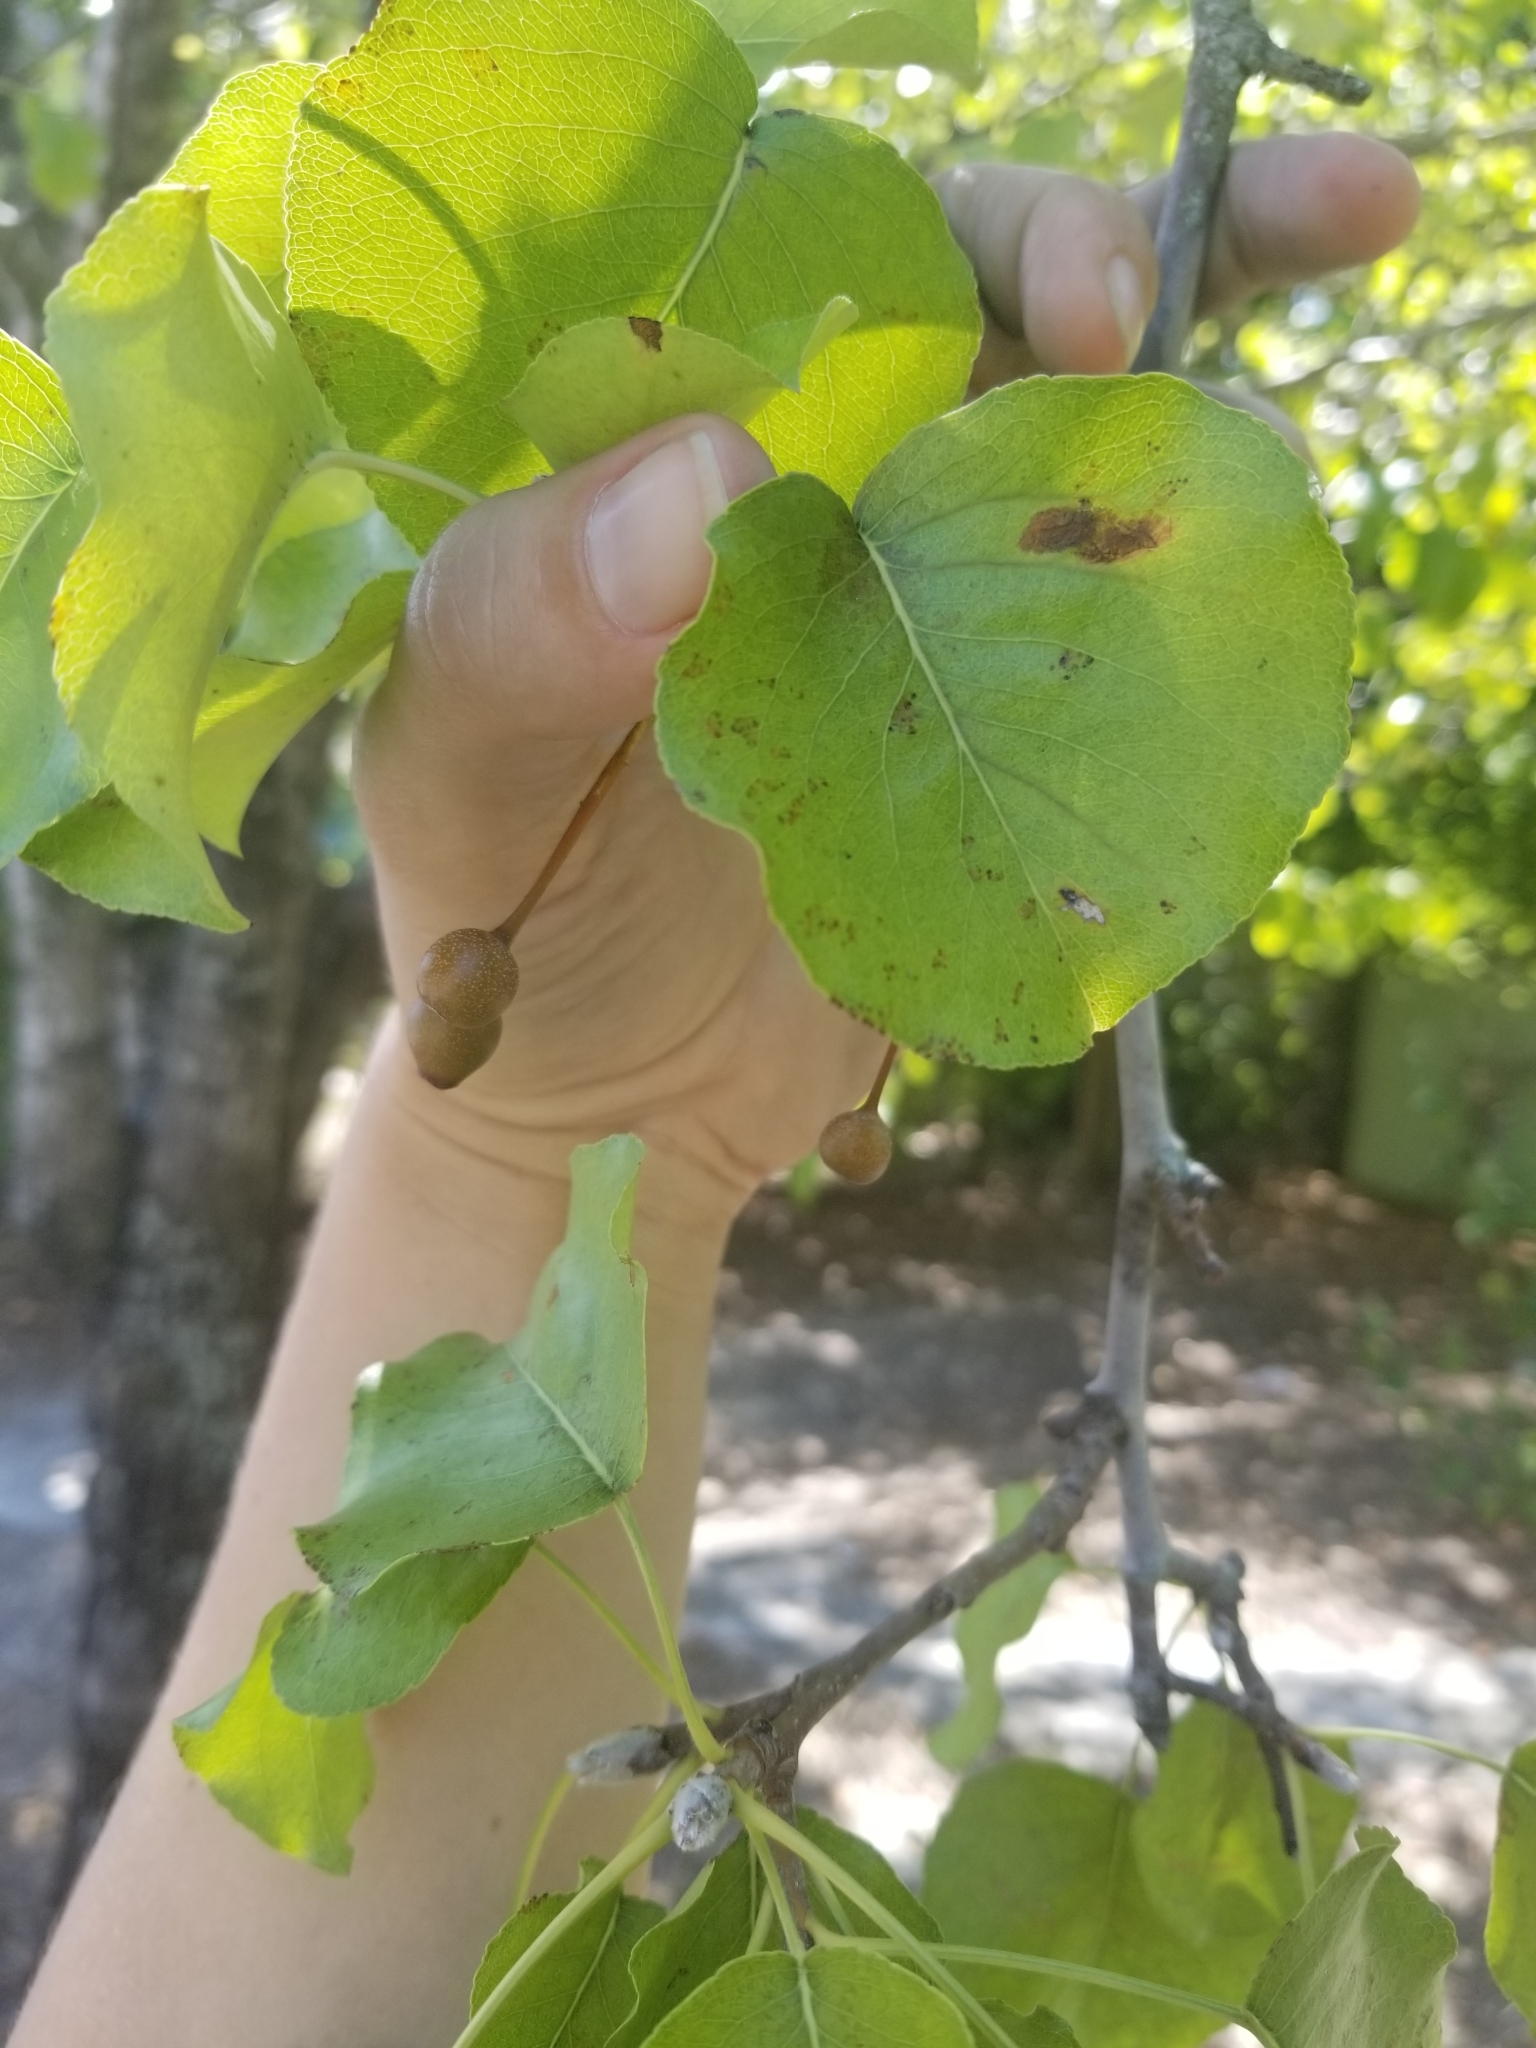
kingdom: Plantae
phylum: Tracheophyta
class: Magnoliopsida
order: Rosales
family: Rosaceae
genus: Pyrus
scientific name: Pyrus calleryana
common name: Callery pear
